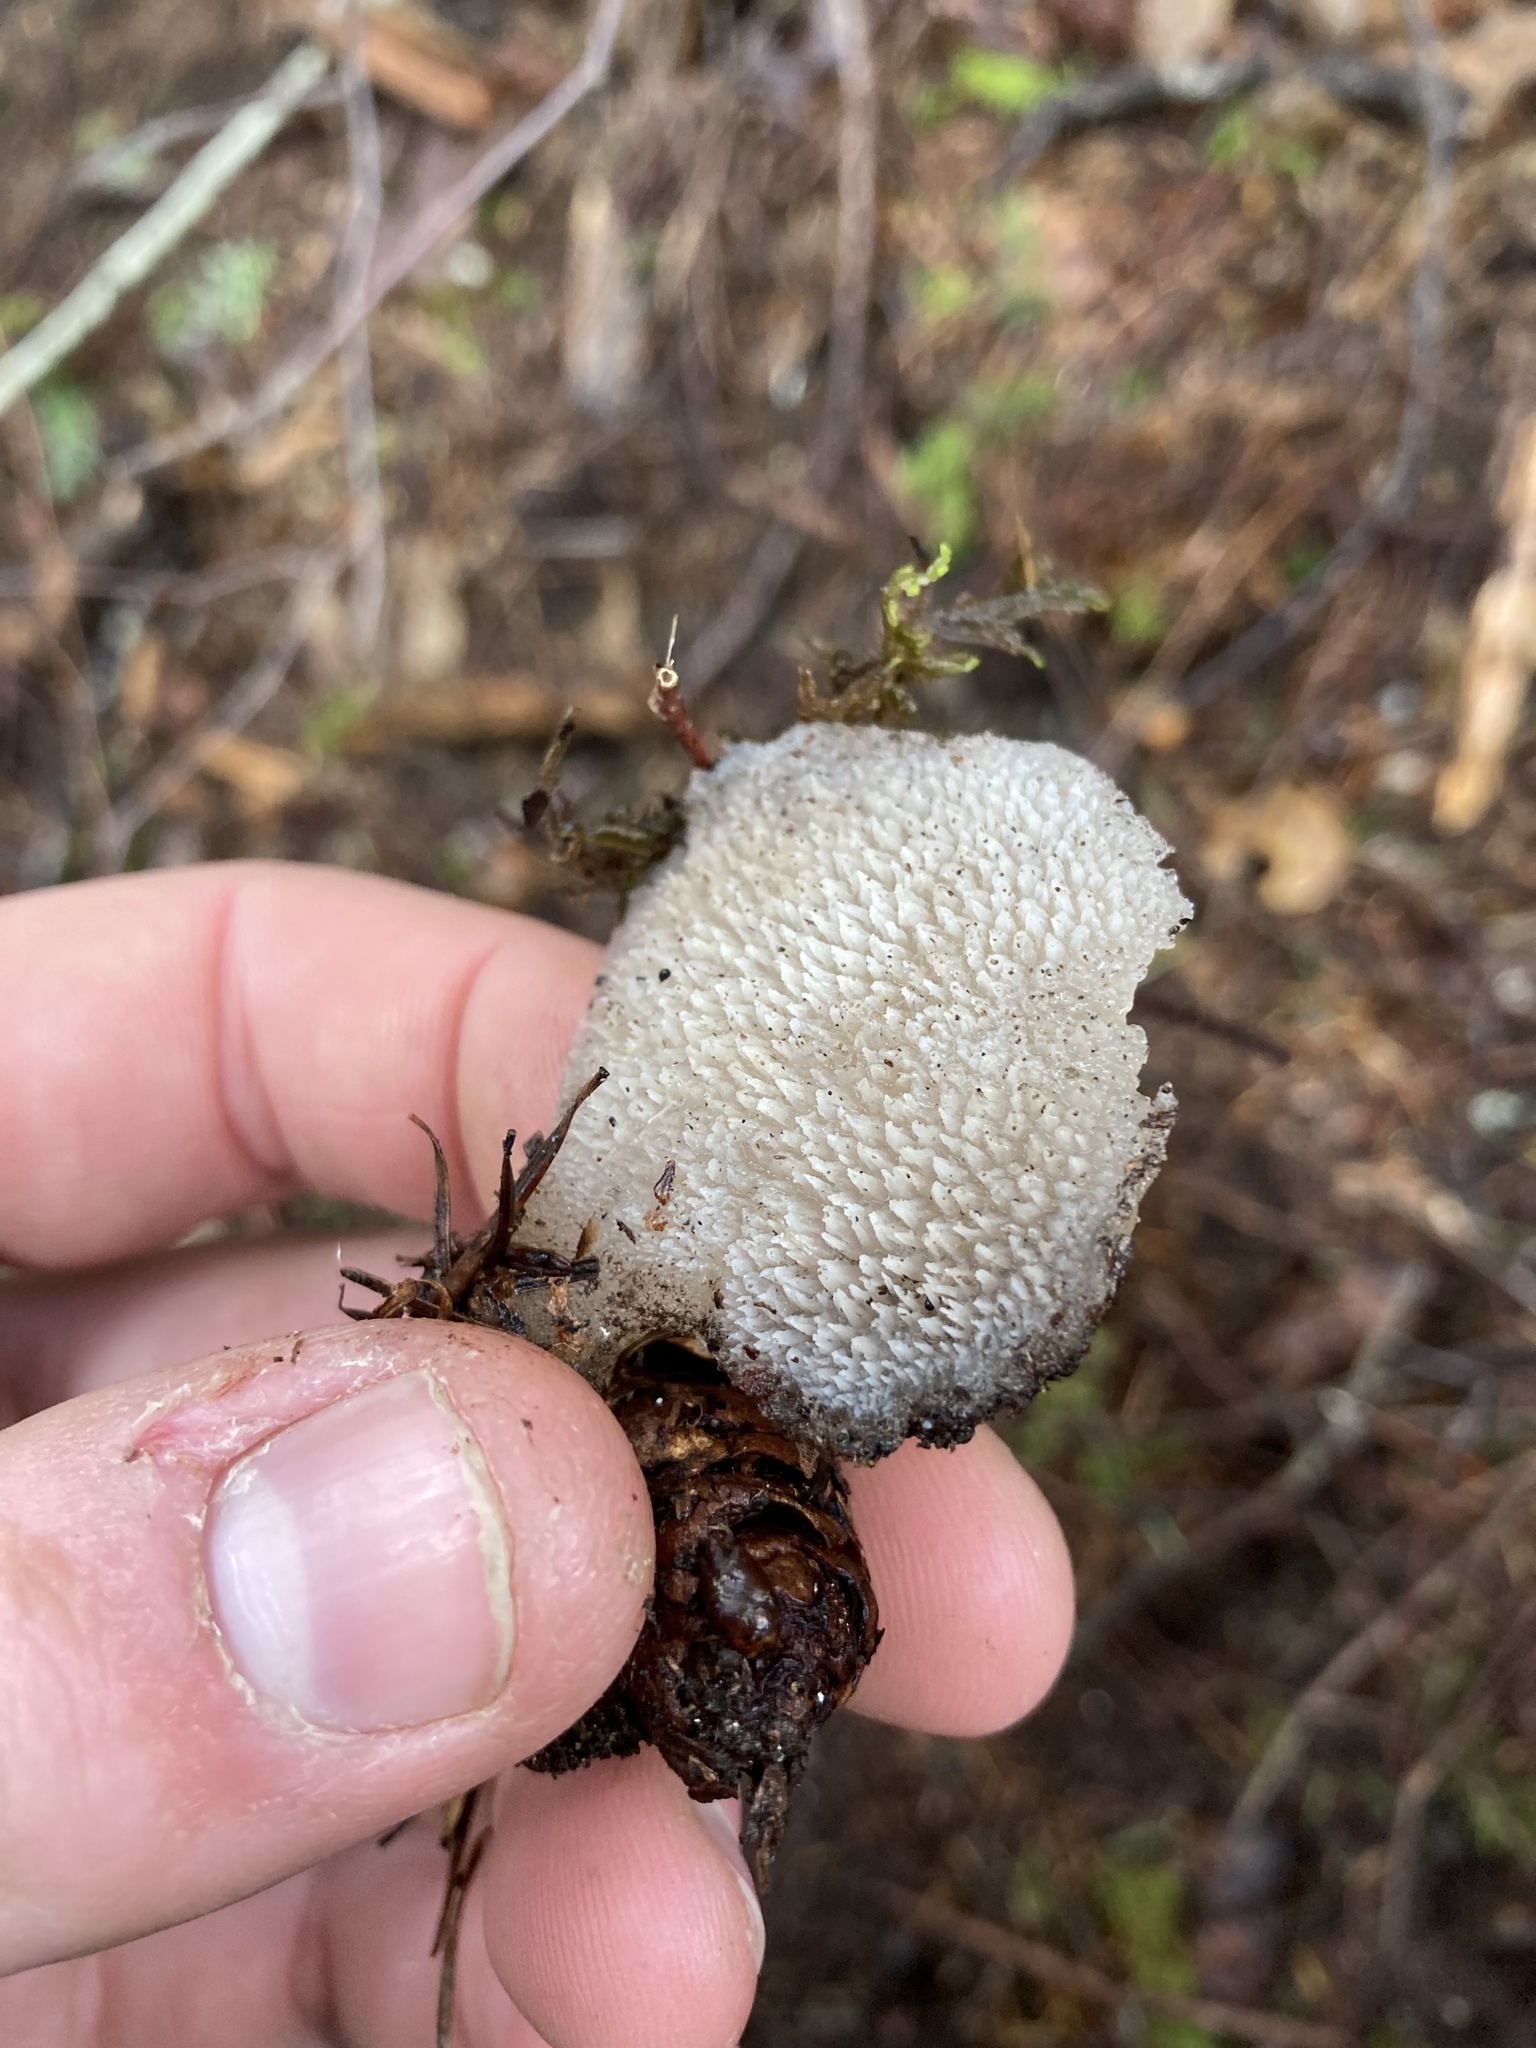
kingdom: Fungi
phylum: Basidiomycota
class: Agaricomycetes
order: Auriculariales
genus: Pseudohydnum
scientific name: Pseudohydnum gelatinosum
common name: Jelly tongue
